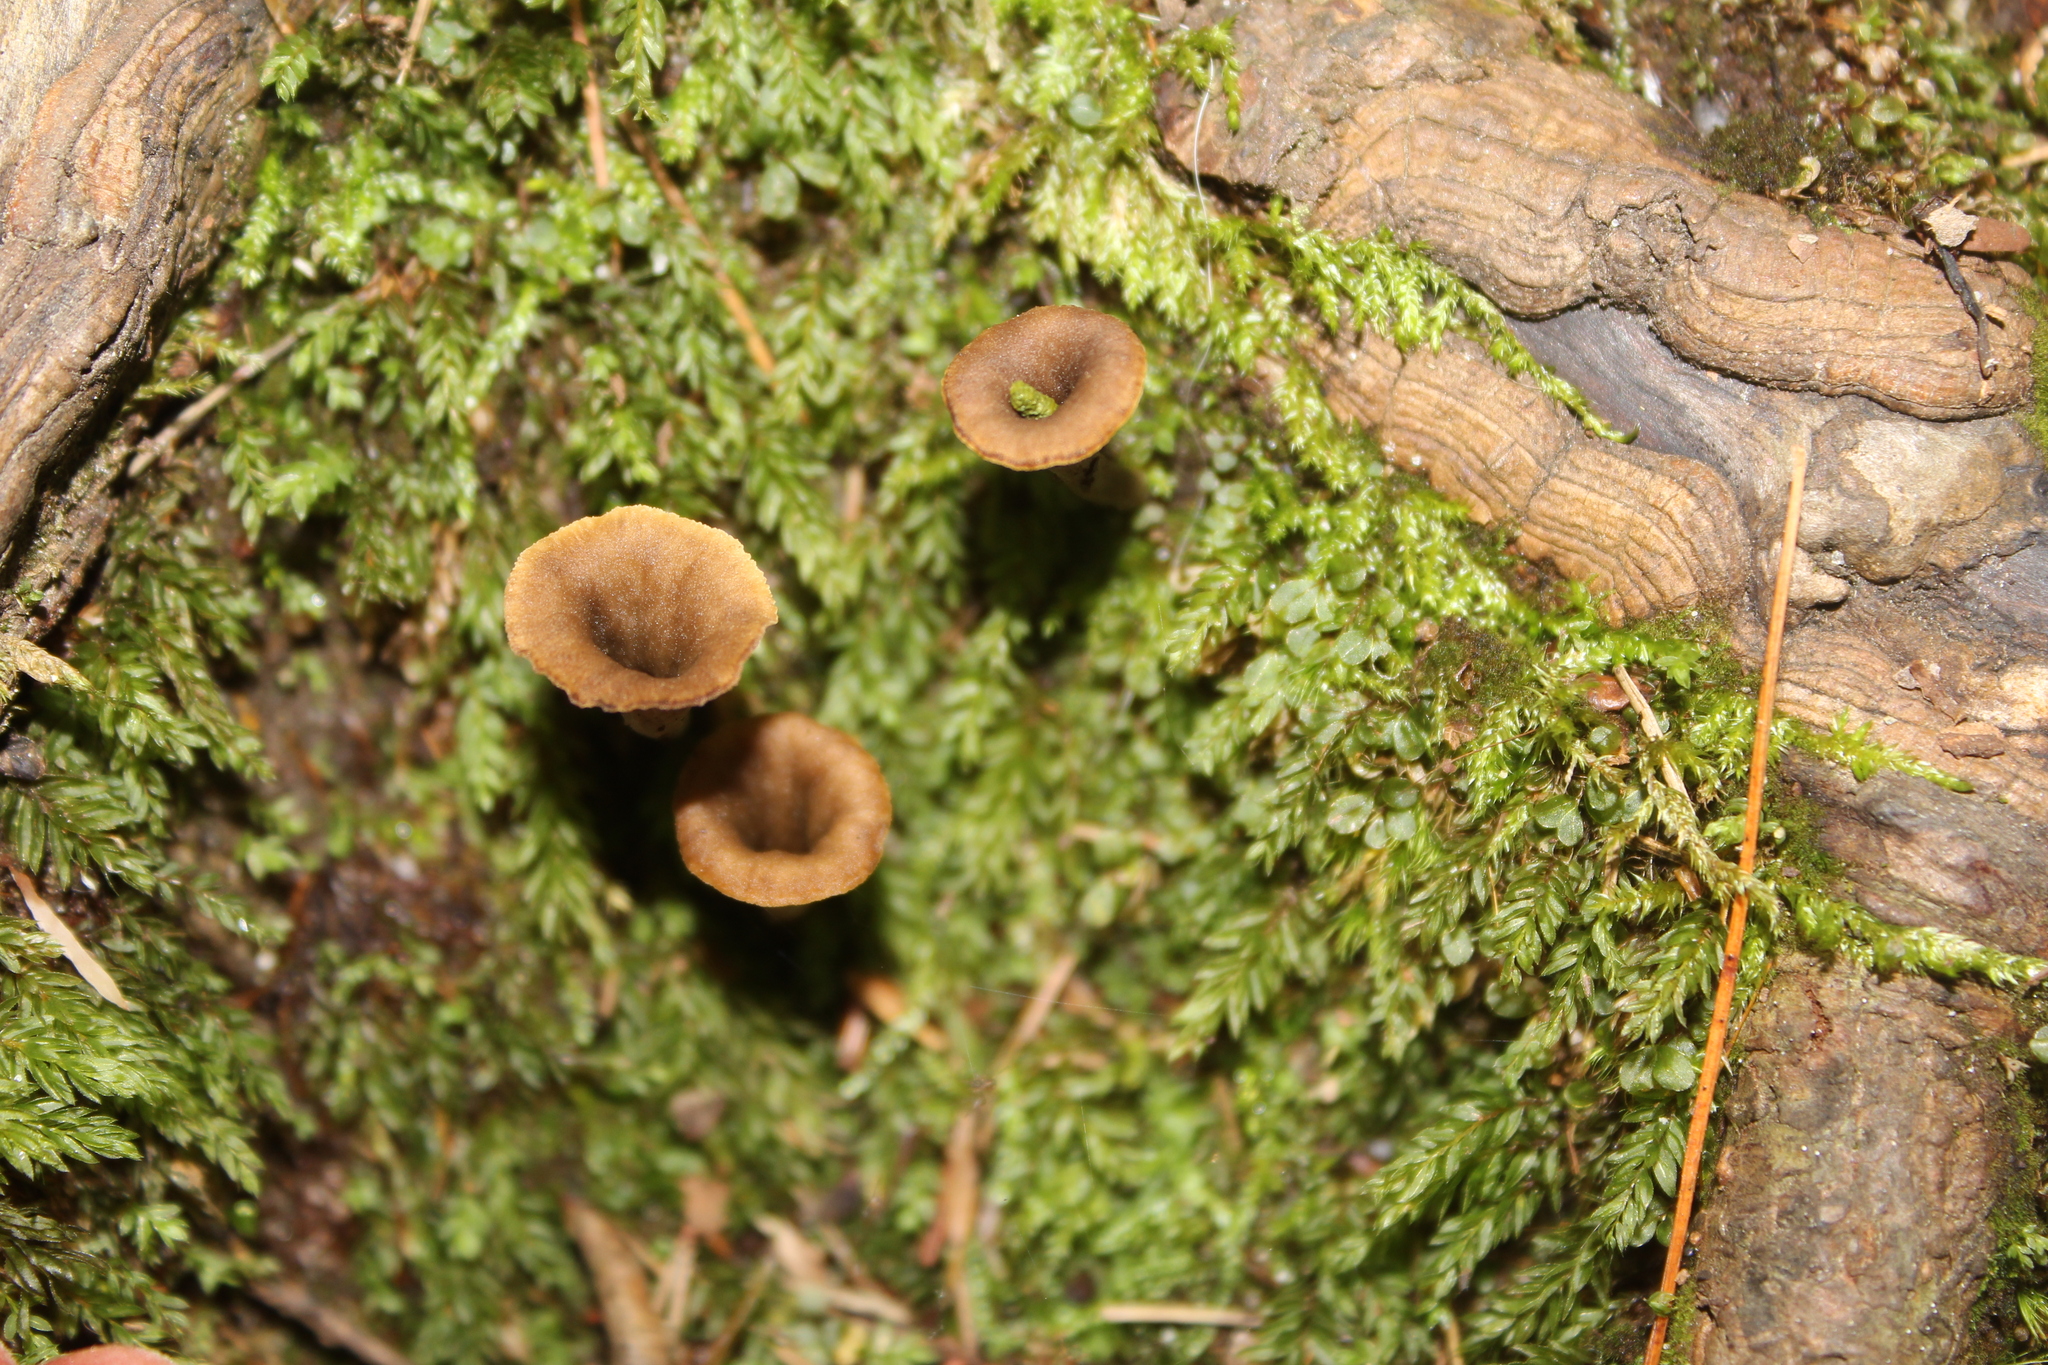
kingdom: Fungi
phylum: Basidiomycota
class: Agaricomycetes
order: Cantharellales
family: Hydnaceae
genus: Craterellus
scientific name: Craterellus cornucopioides
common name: Horn of plenty
